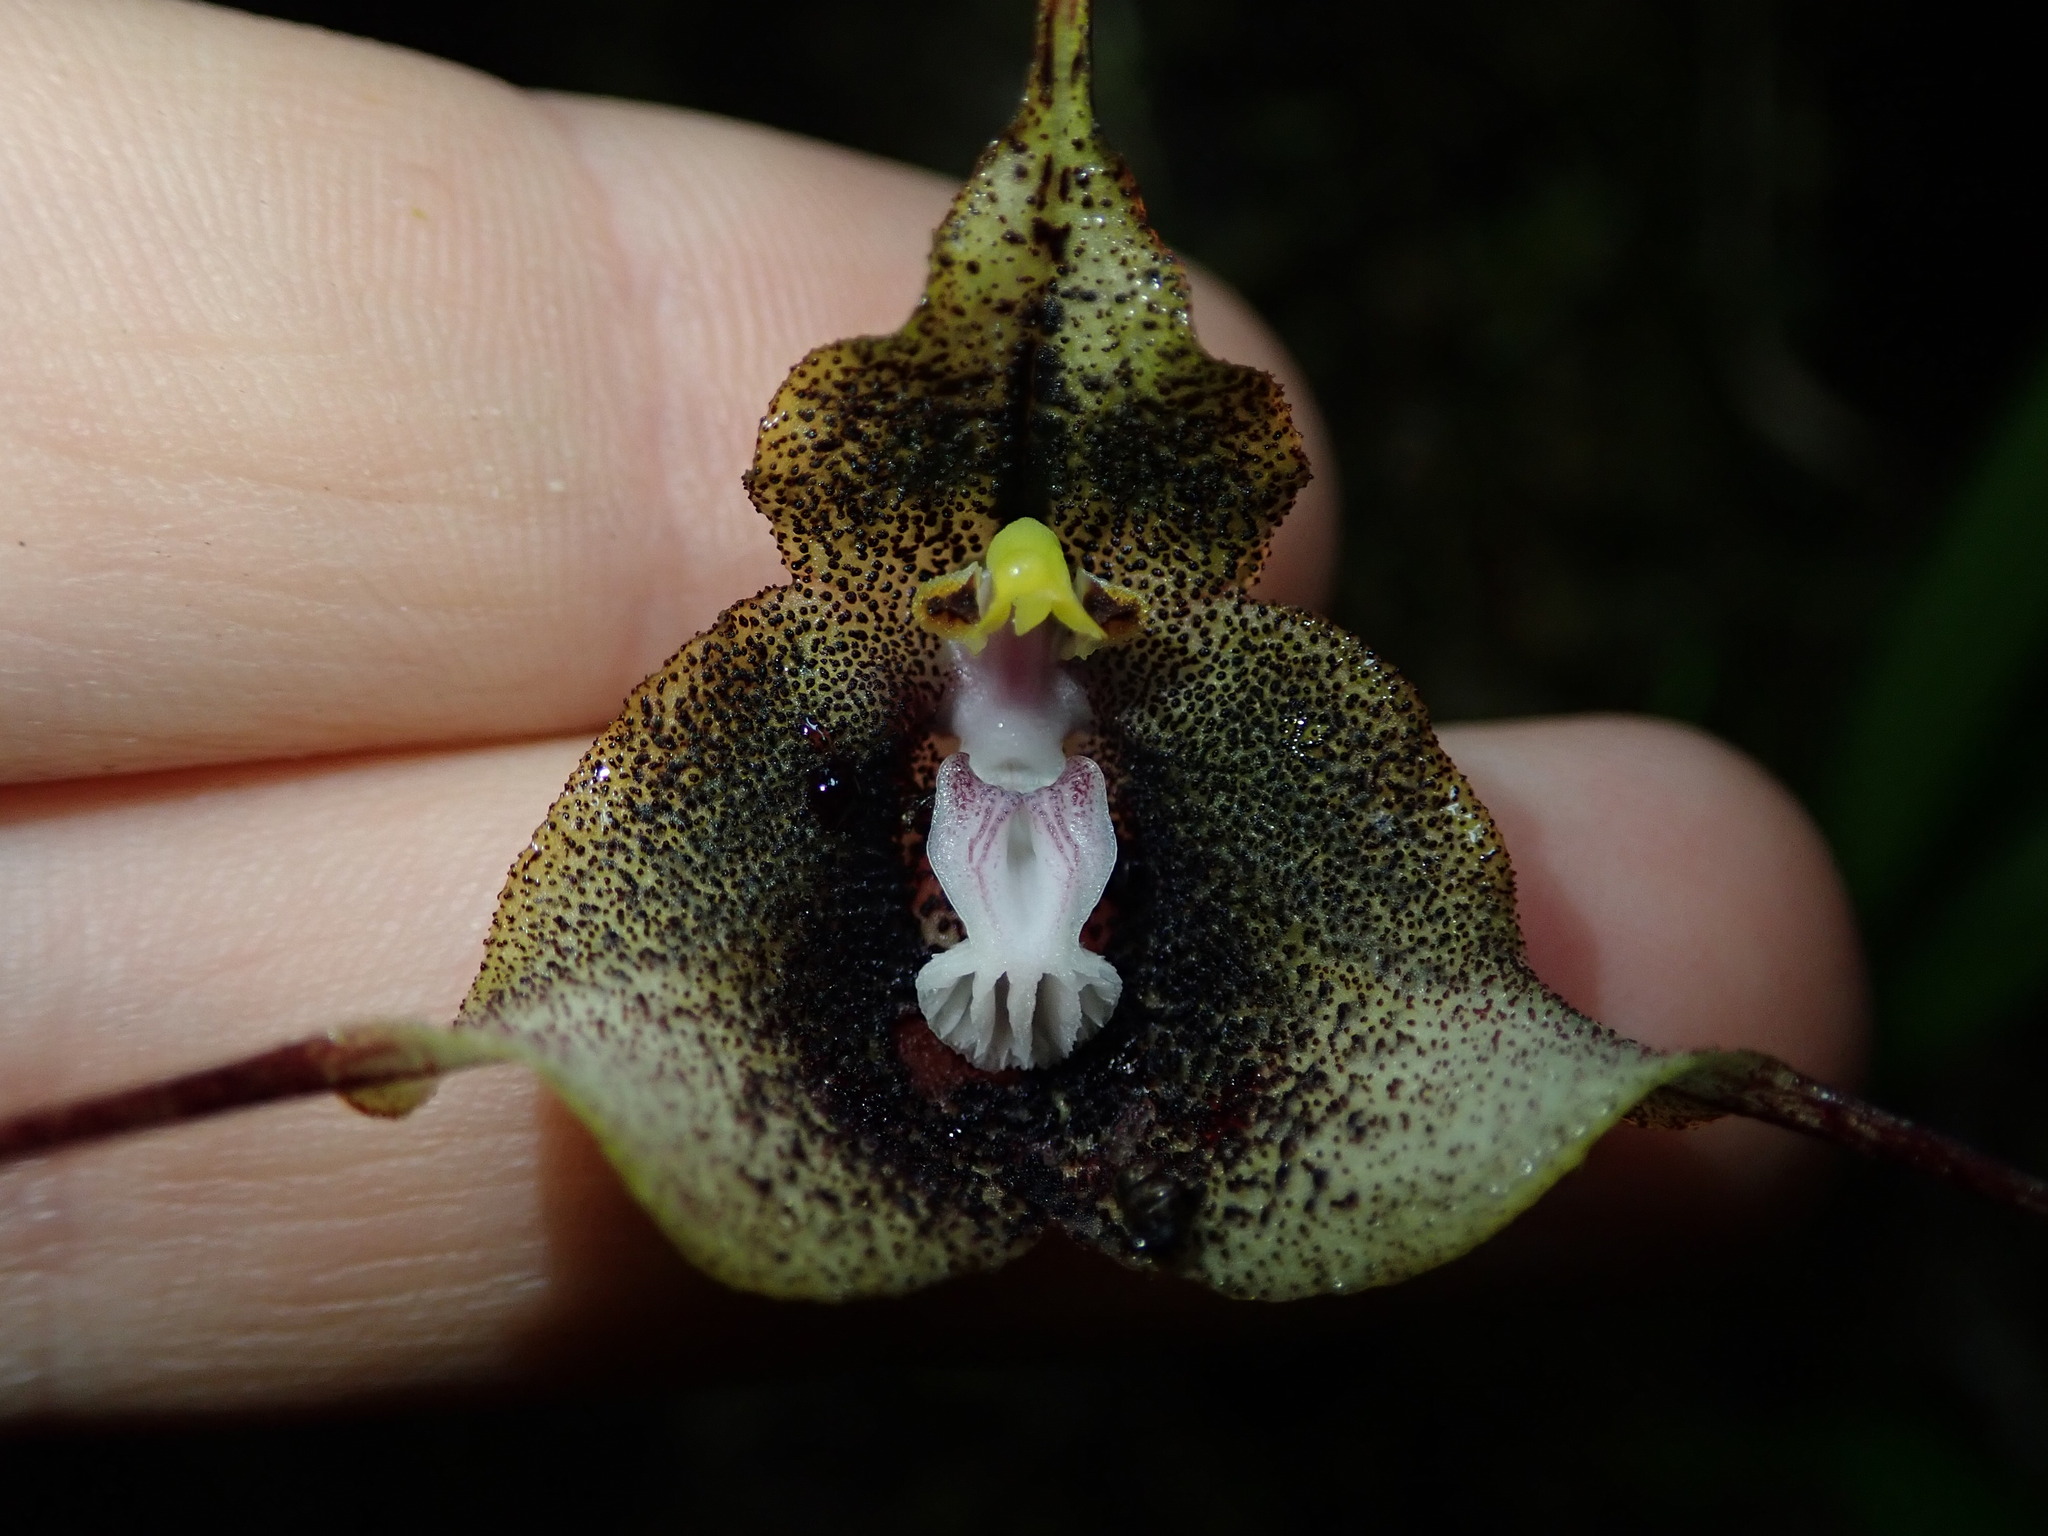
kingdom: Plantae
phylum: Tracheophyta
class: Liliopsida
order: Asparagales
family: Orchidaceae
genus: Dracula
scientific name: Dracula exasperata
